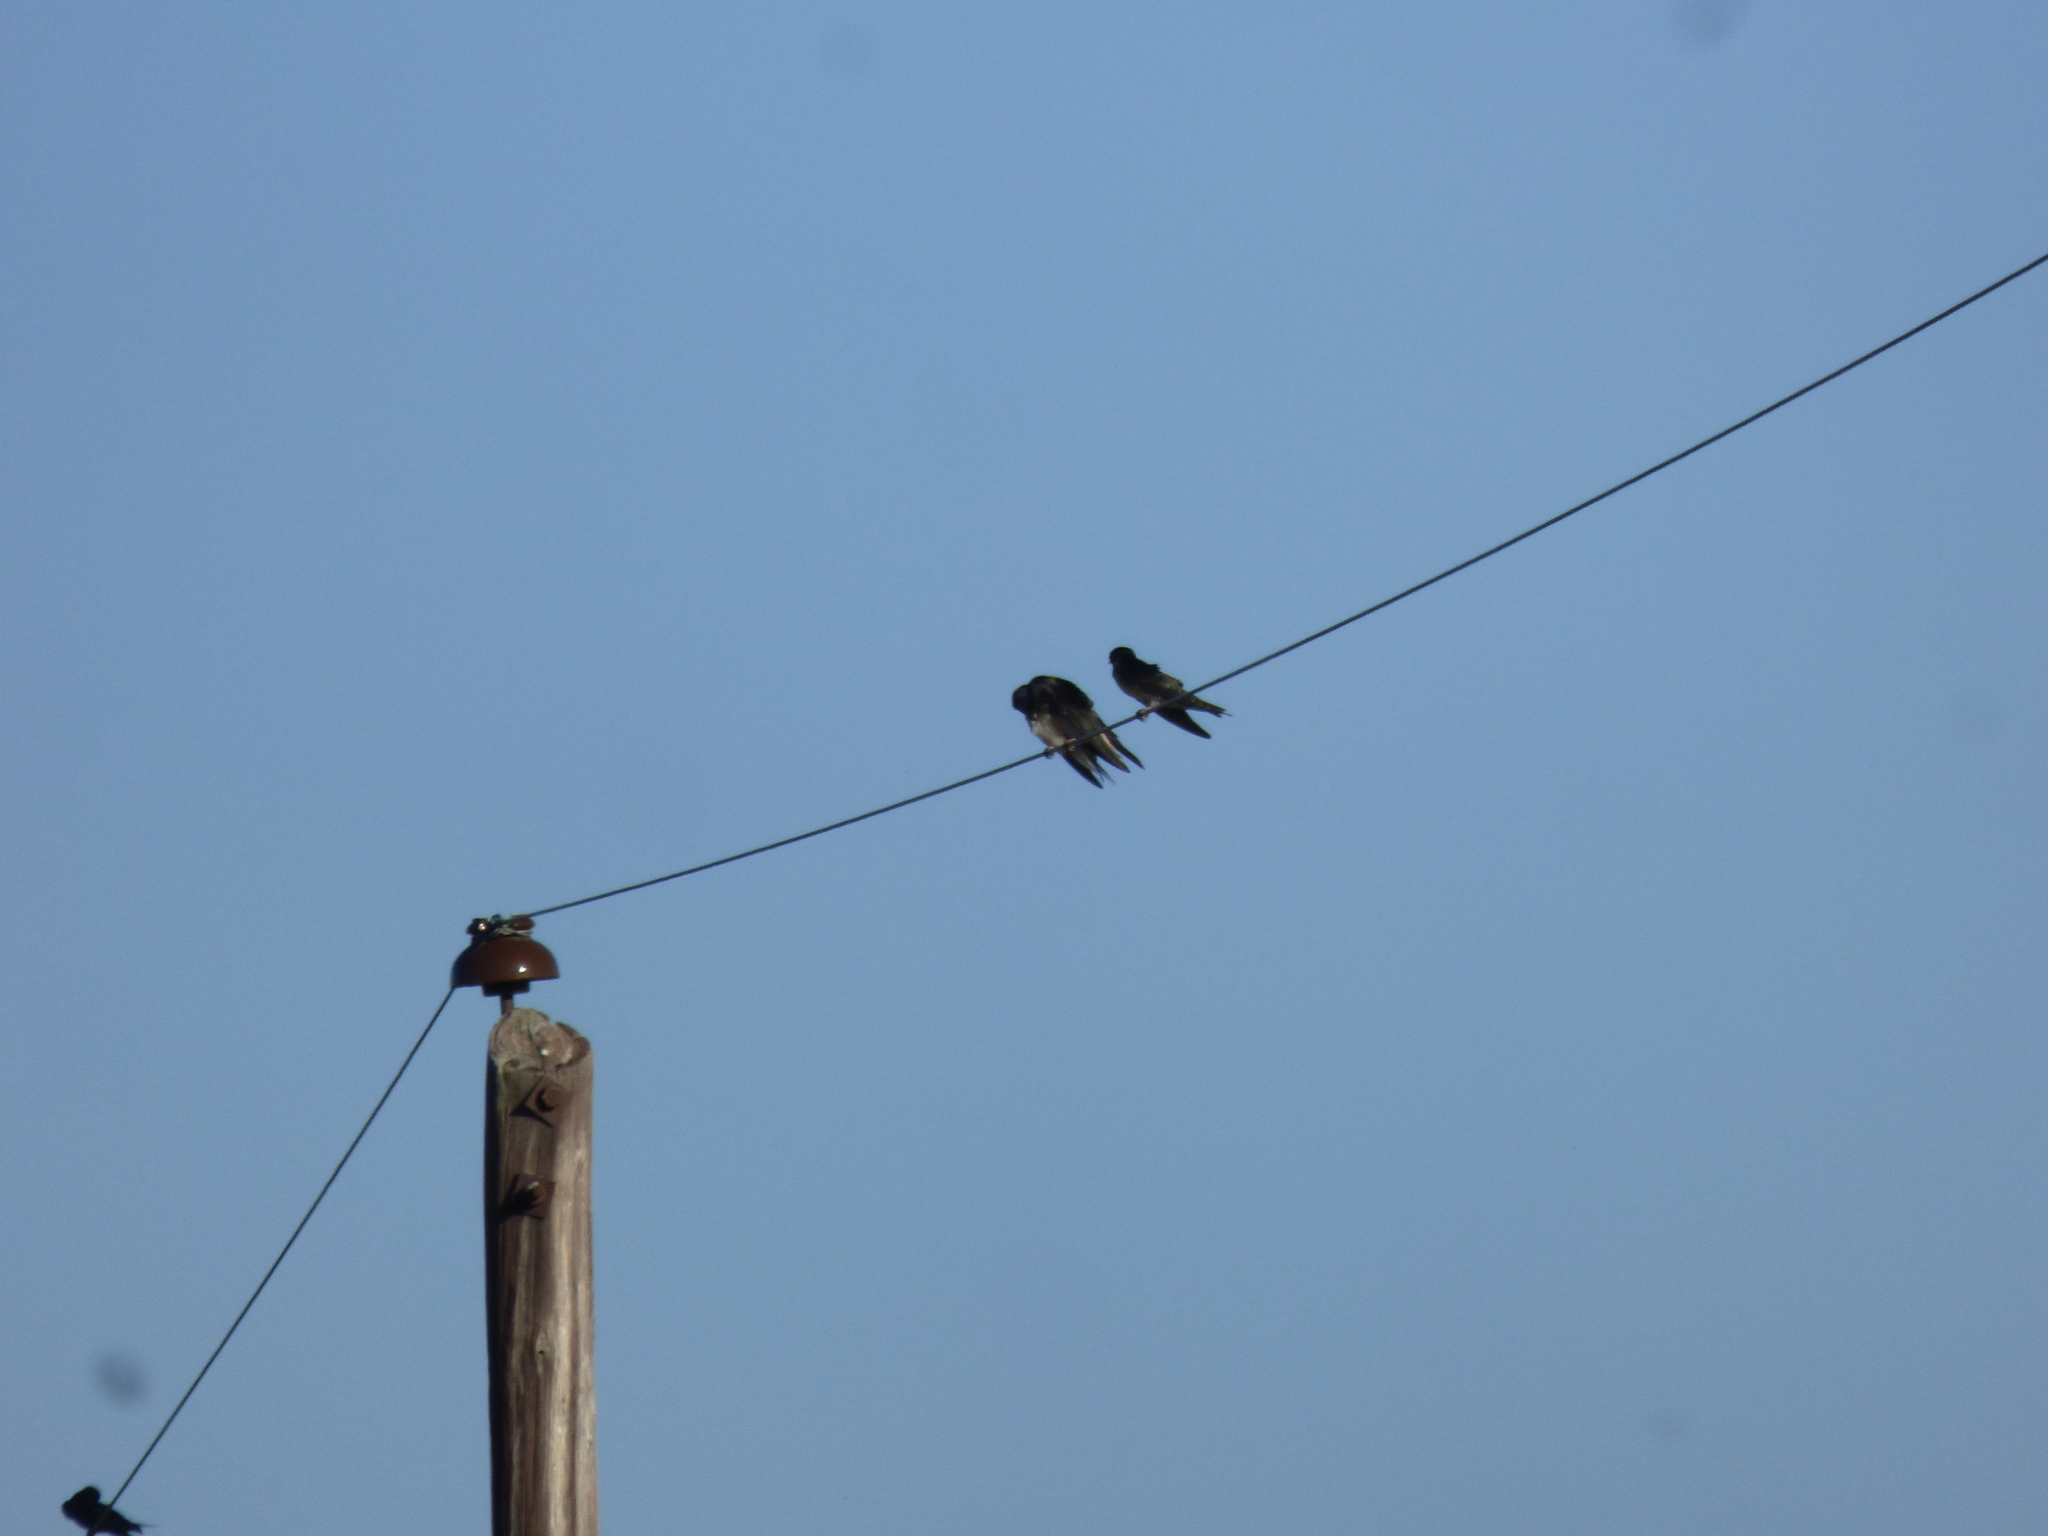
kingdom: Animalia
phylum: Chordata
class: Aves
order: Passeriformes
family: Hirundinidae
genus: Progne
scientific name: Progne chalybea
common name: Grey-breasted martin
